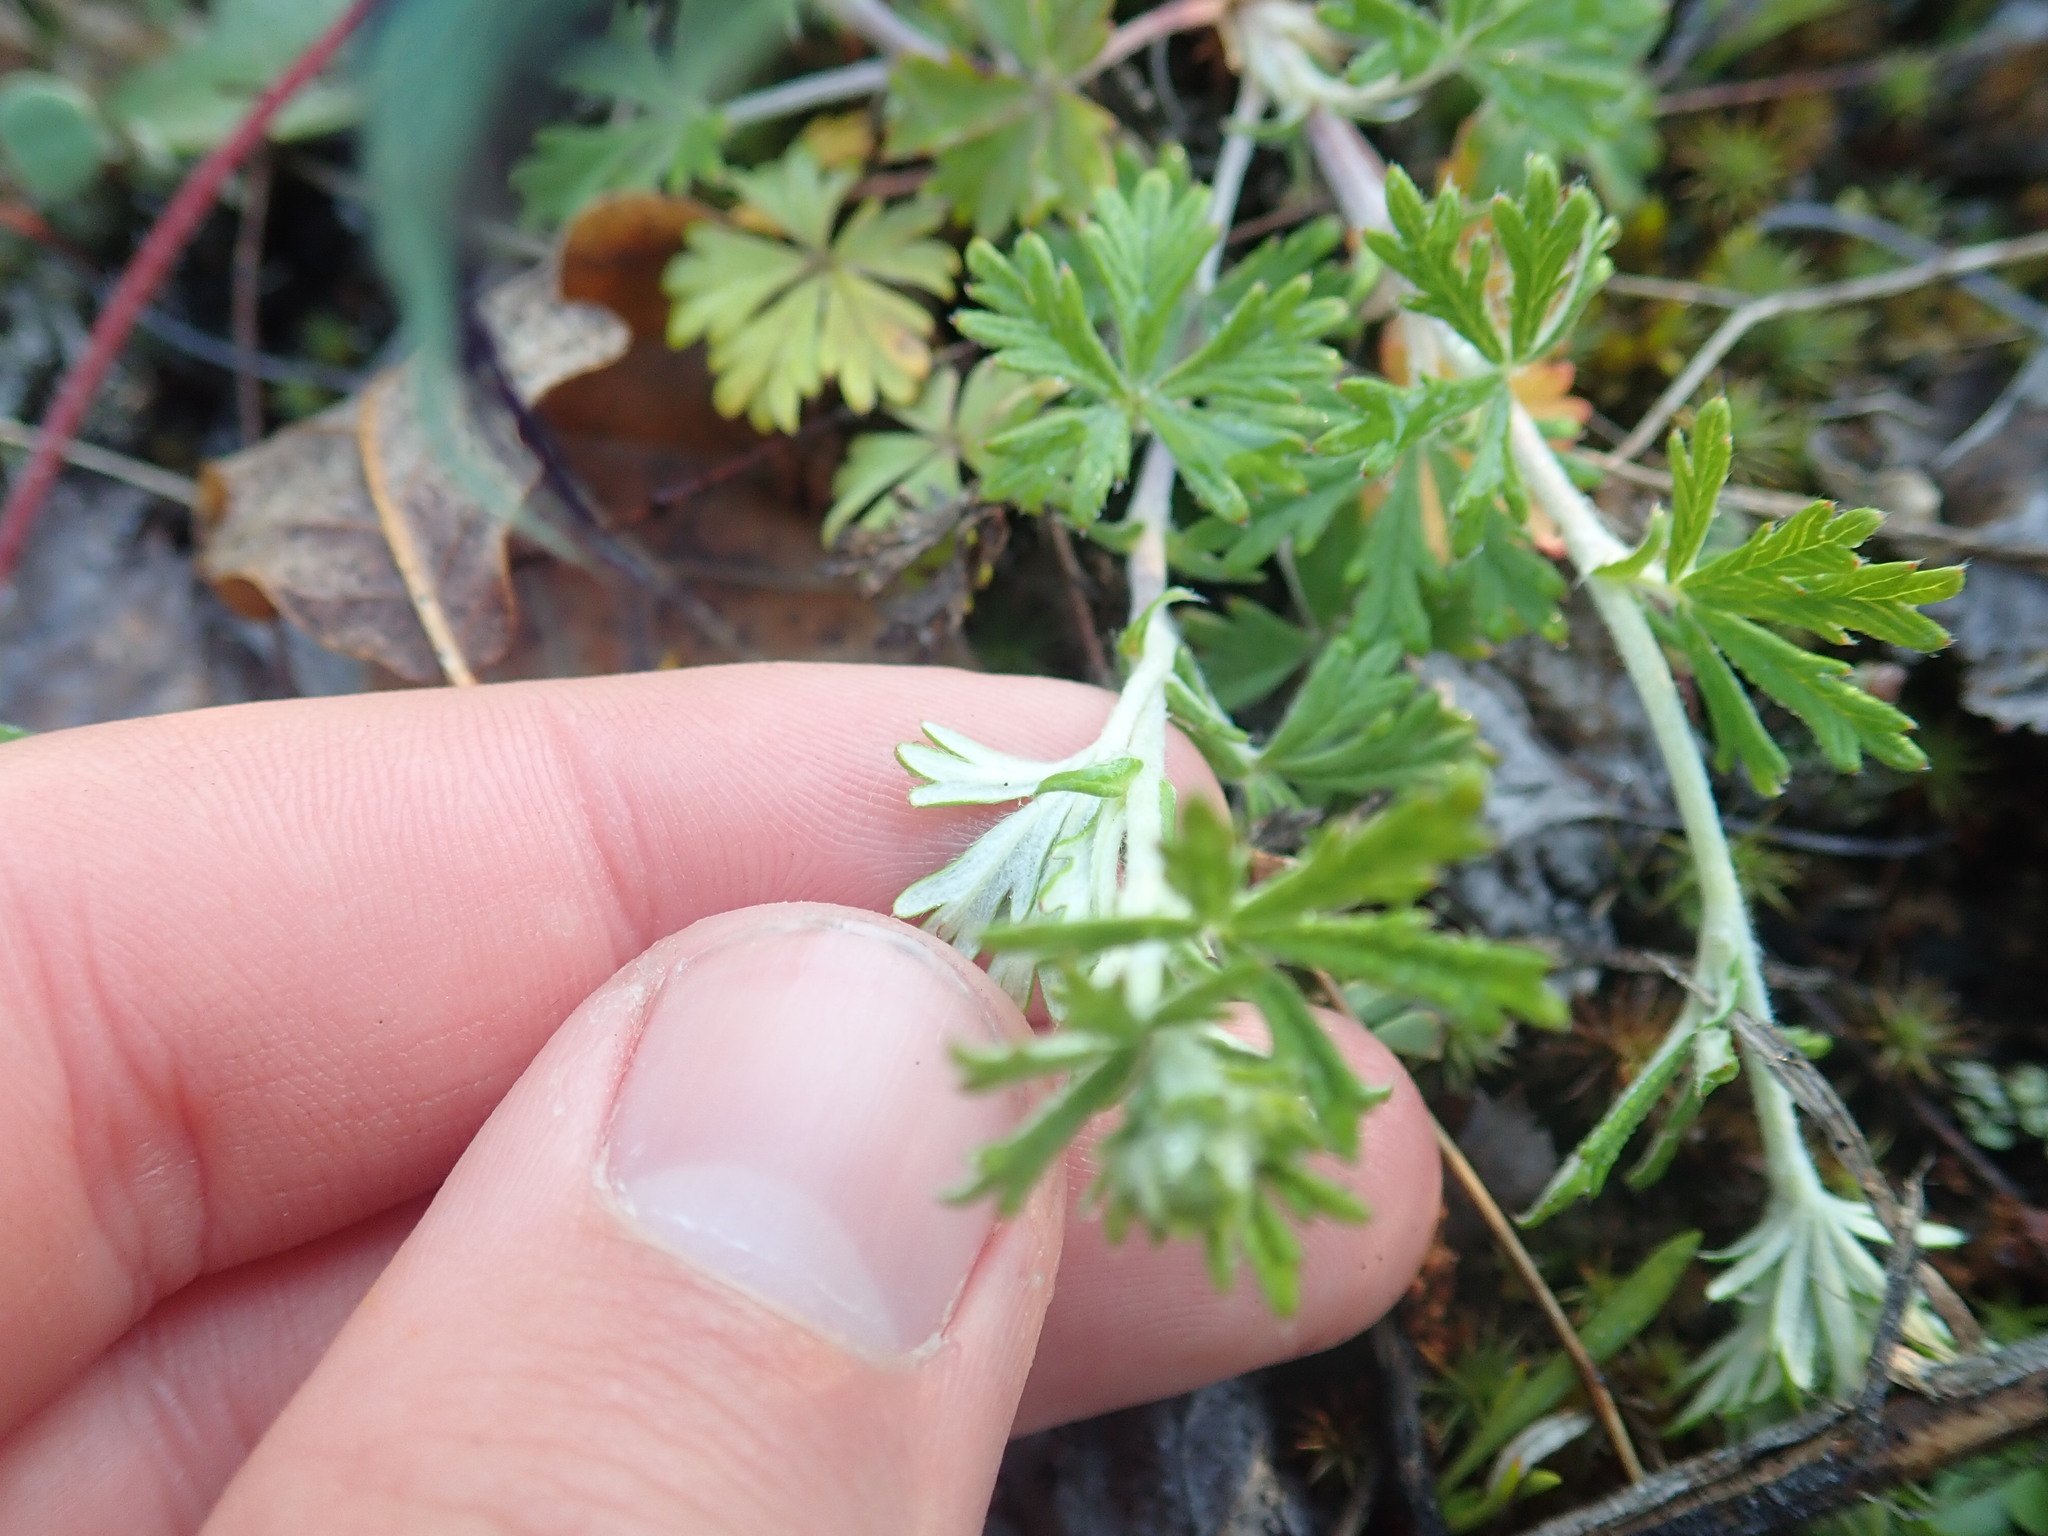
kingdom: Plantae
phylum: Tracheophyta
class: Magnoliopsida
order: Rosales
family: Rosaceae
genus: Potentilla
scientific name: Potentilla argentea
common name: Hoary cinquefoil
